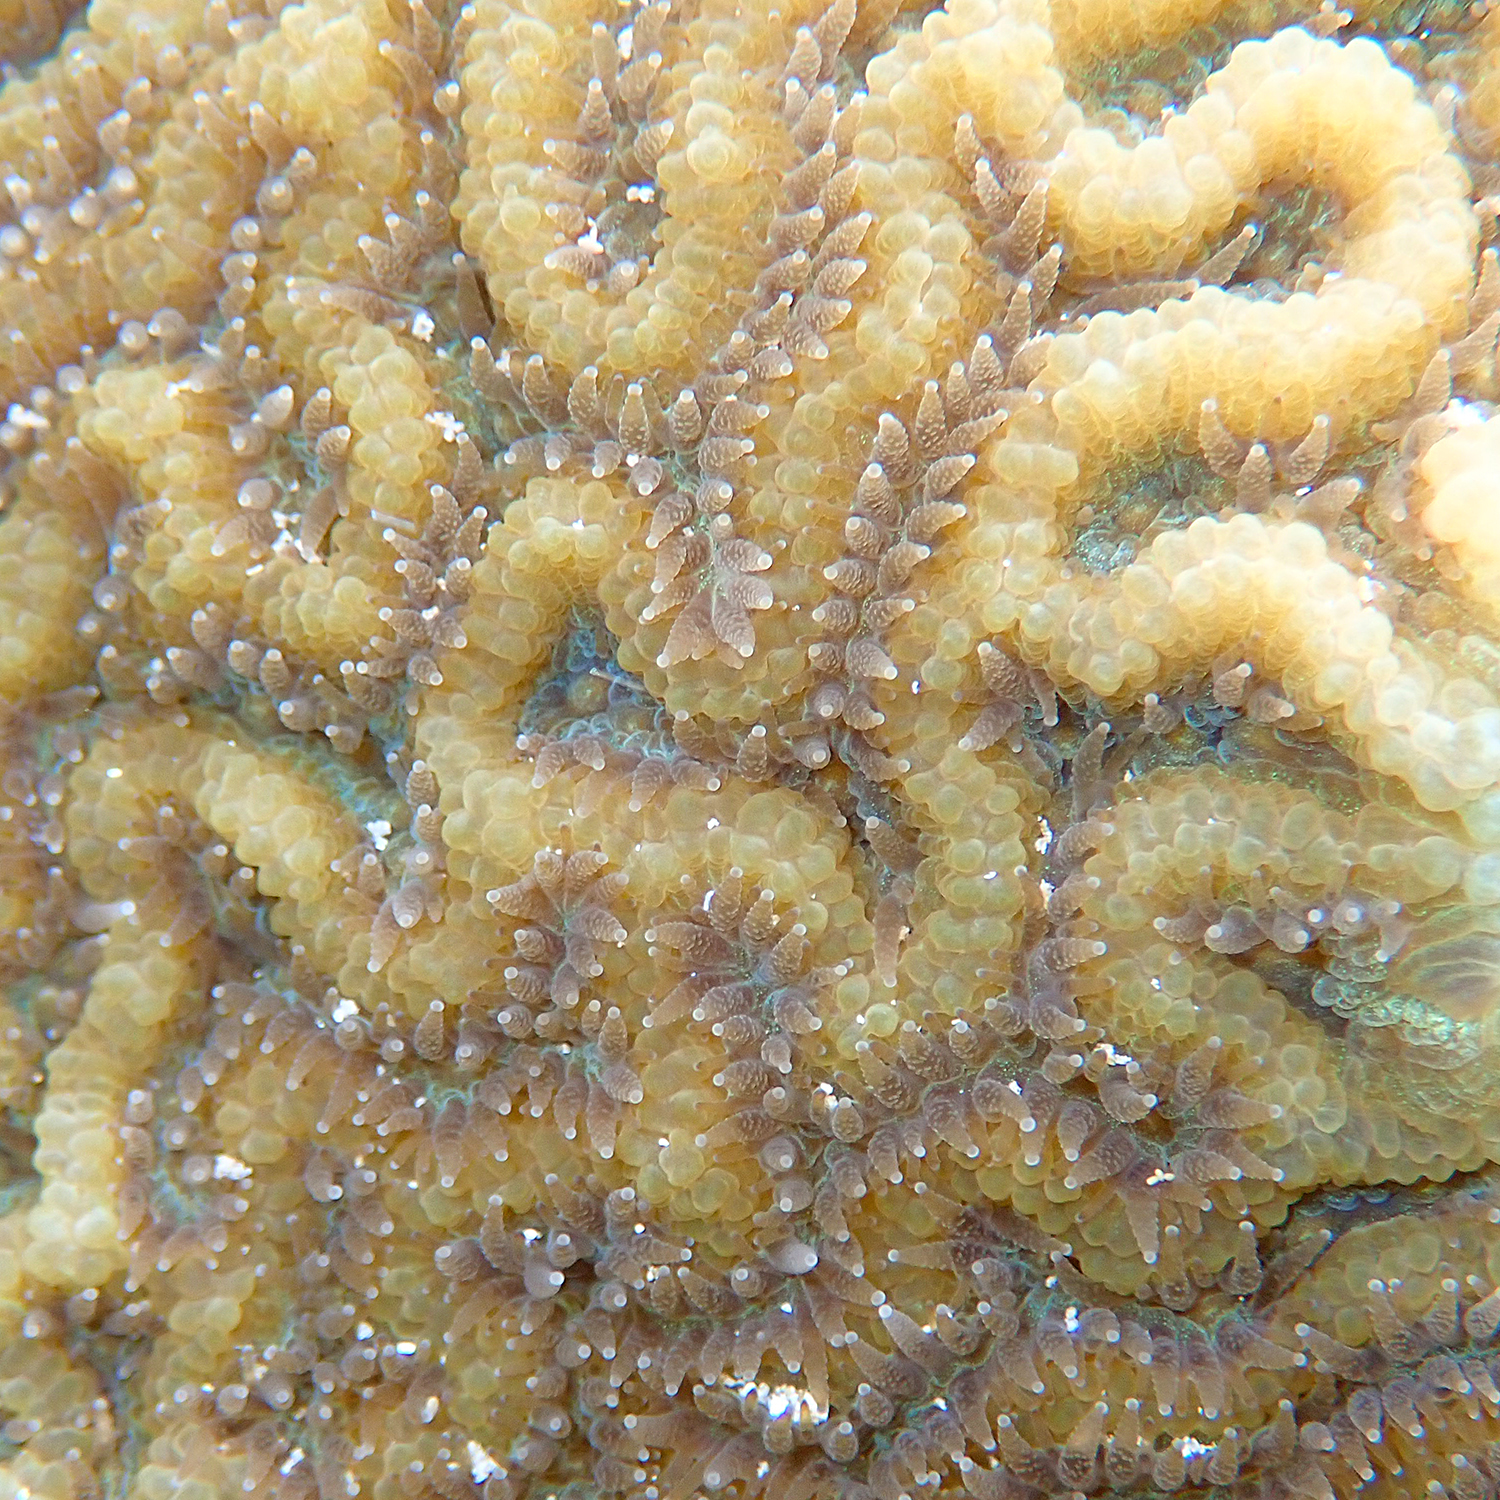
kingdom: Animalia
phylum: Cnidaria
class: Anthozoa
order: Scleractinia
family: Merulinidae
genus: Paragoniastrea
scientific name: Paragoniastrea australensis
